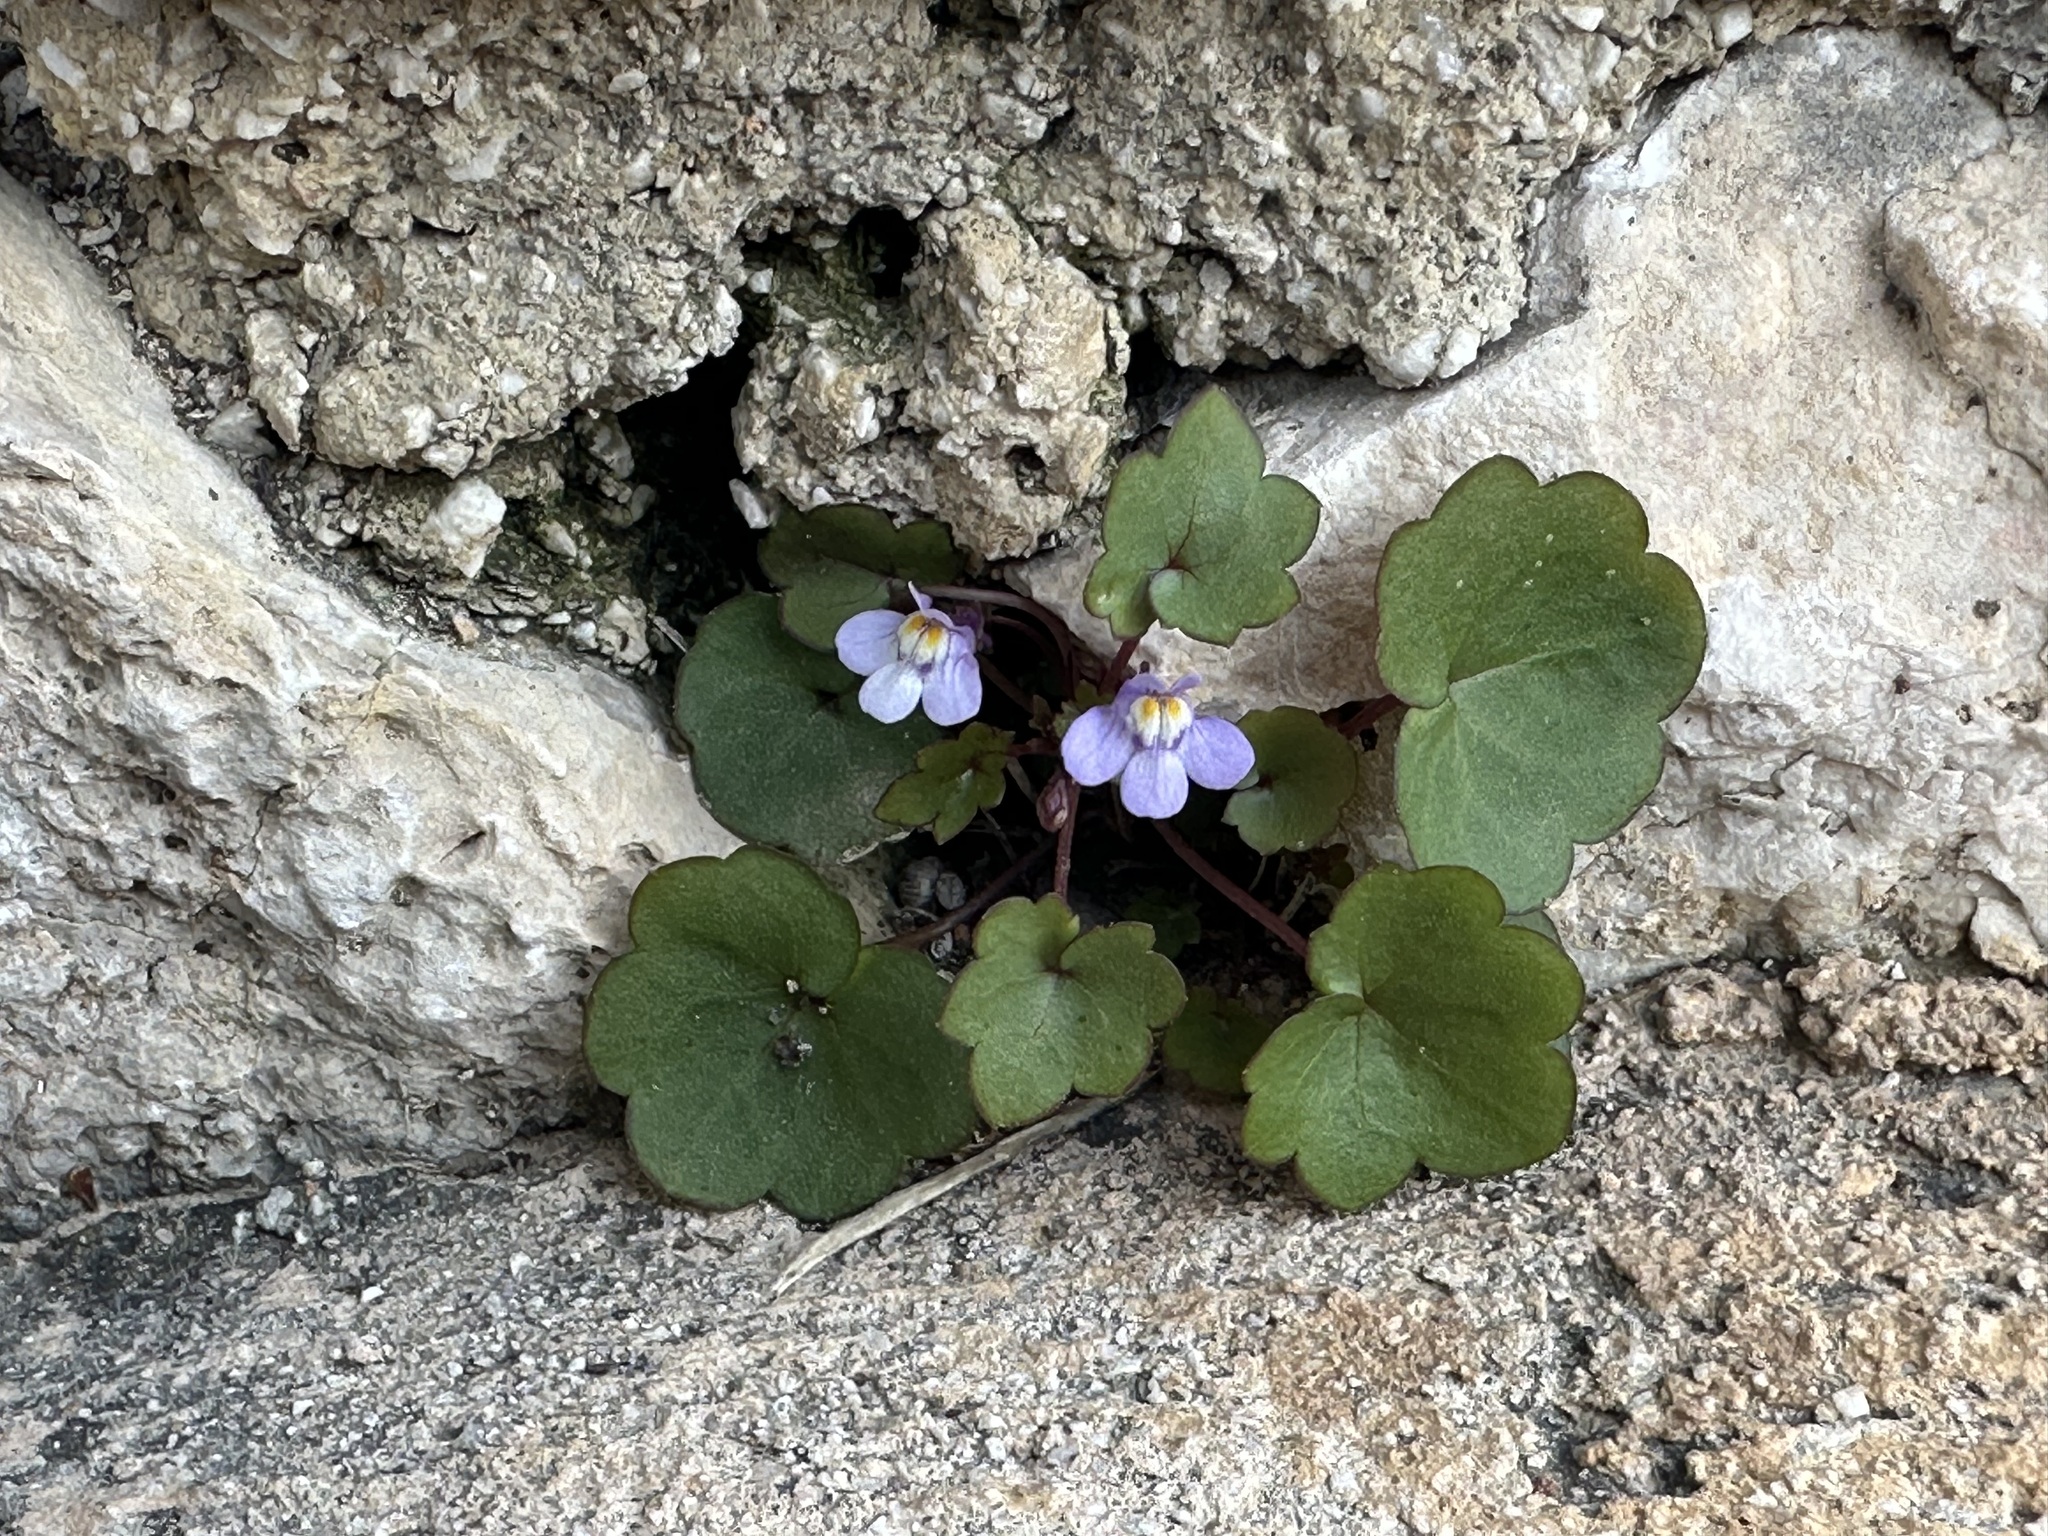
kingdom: Plantae
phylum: Tracheophyta
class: Magnoliopsida
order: Lamiales
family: Plantaginaceae
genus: Cymbalaria
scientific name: Cymbalaria muralis
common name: Ivy-leaved toadflax
